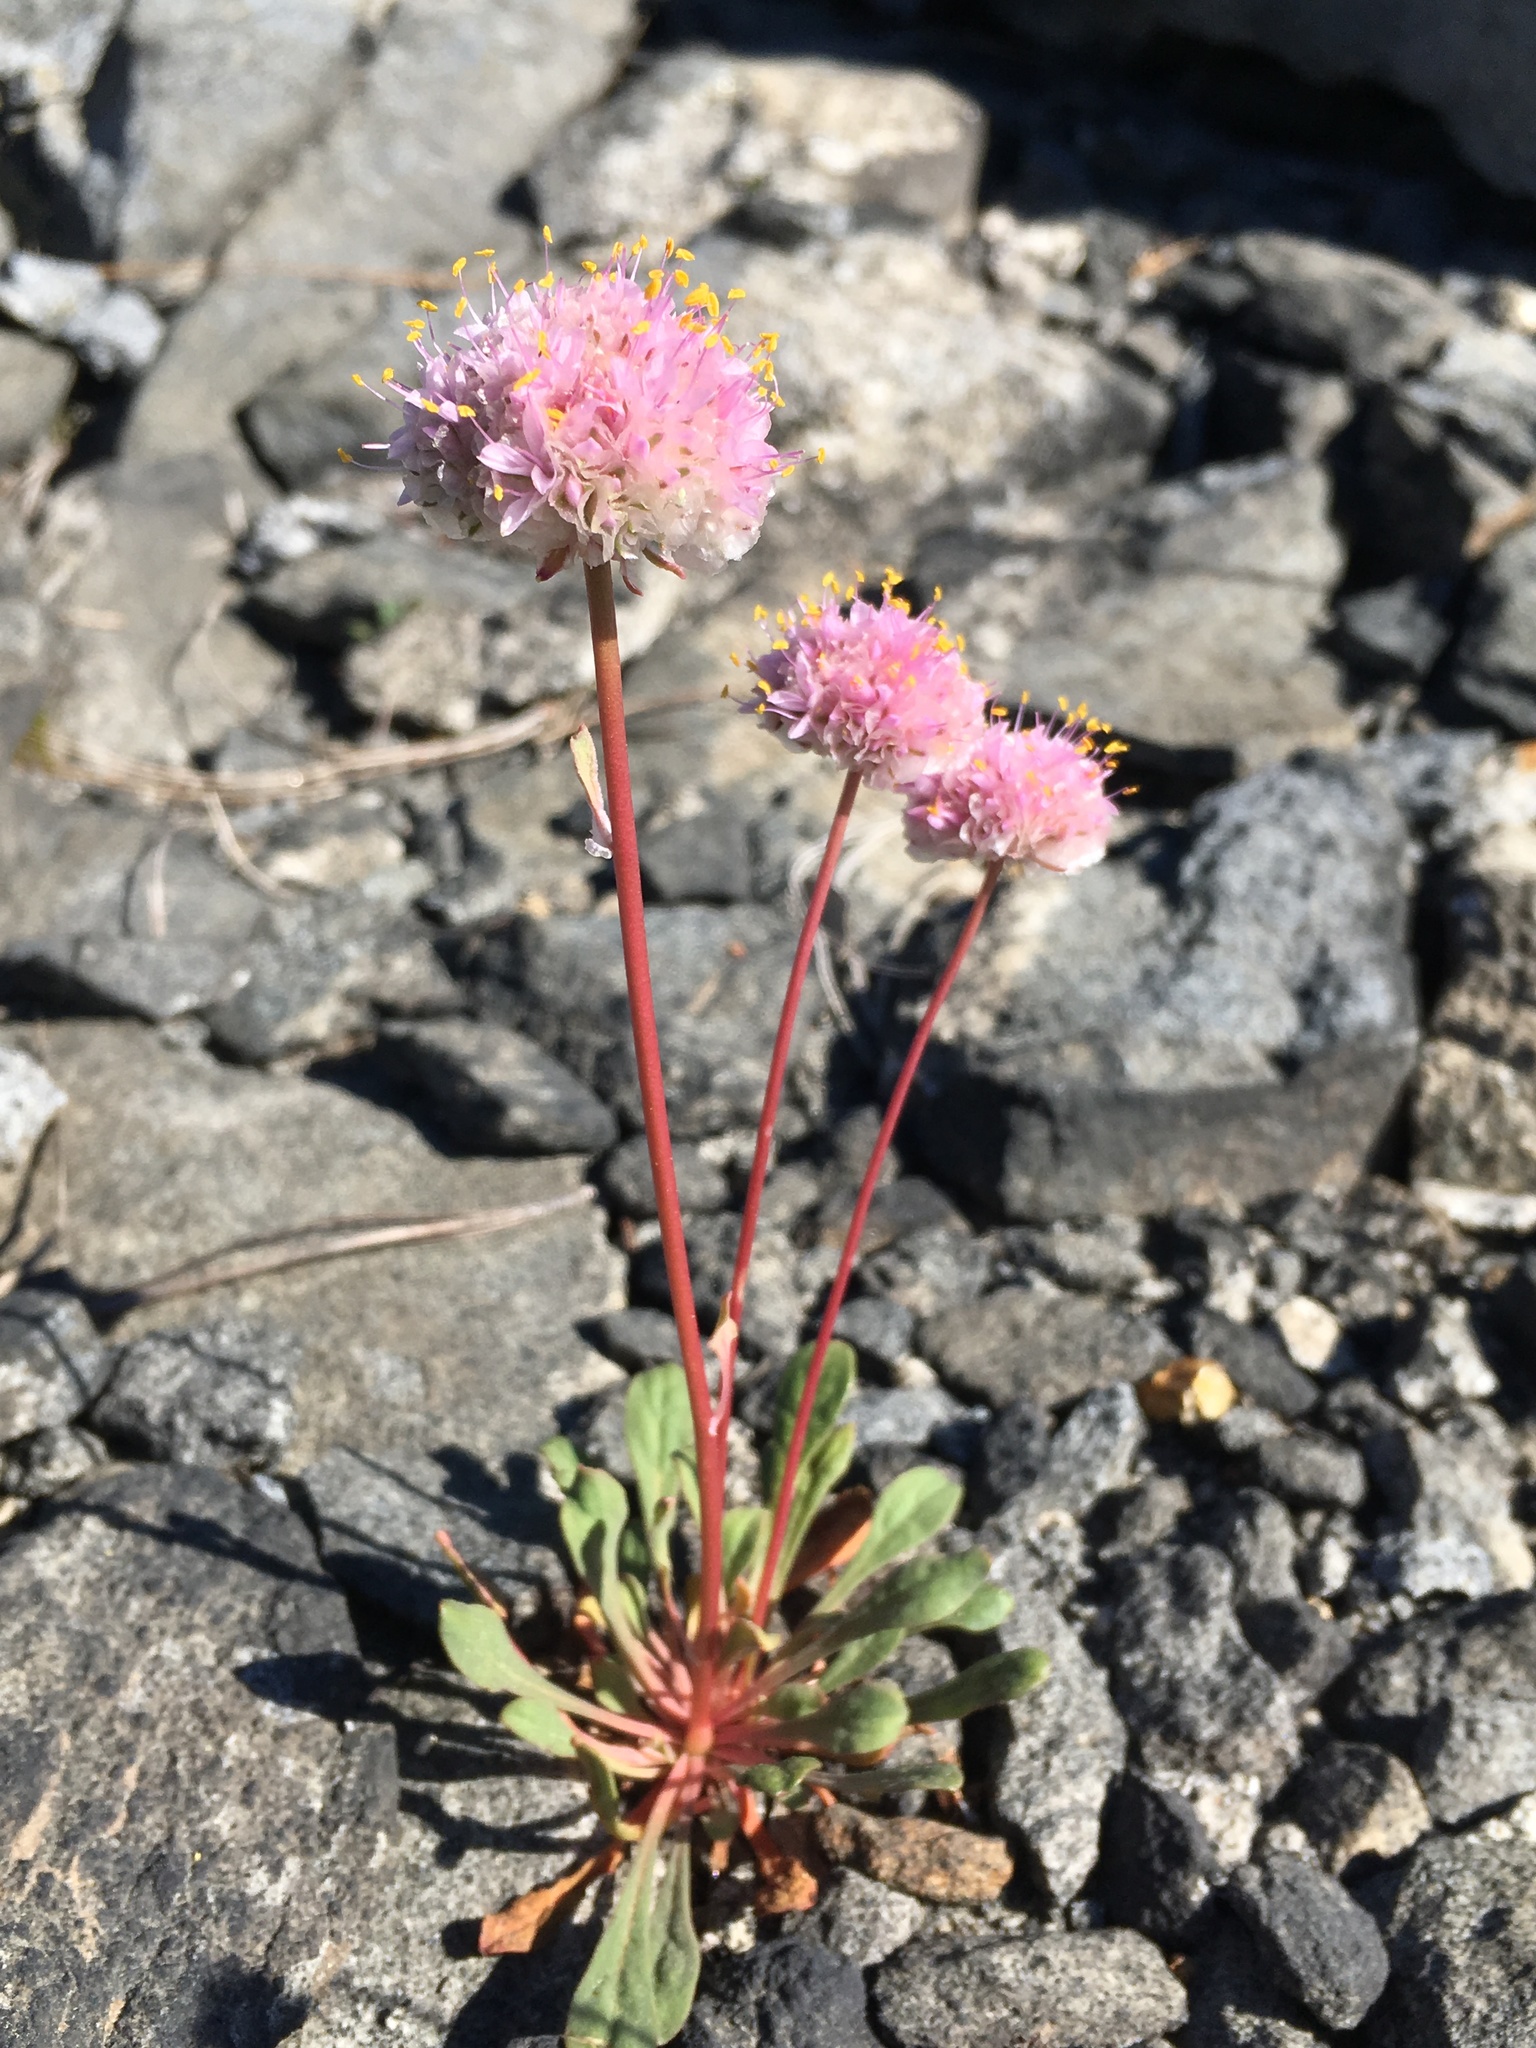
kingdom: Plantae
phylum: Tracheophyta
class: Magnoliopsida
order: Caryophyllales
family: Montiaceae
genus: Calyptridium
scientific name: Calyptridium monospermum
